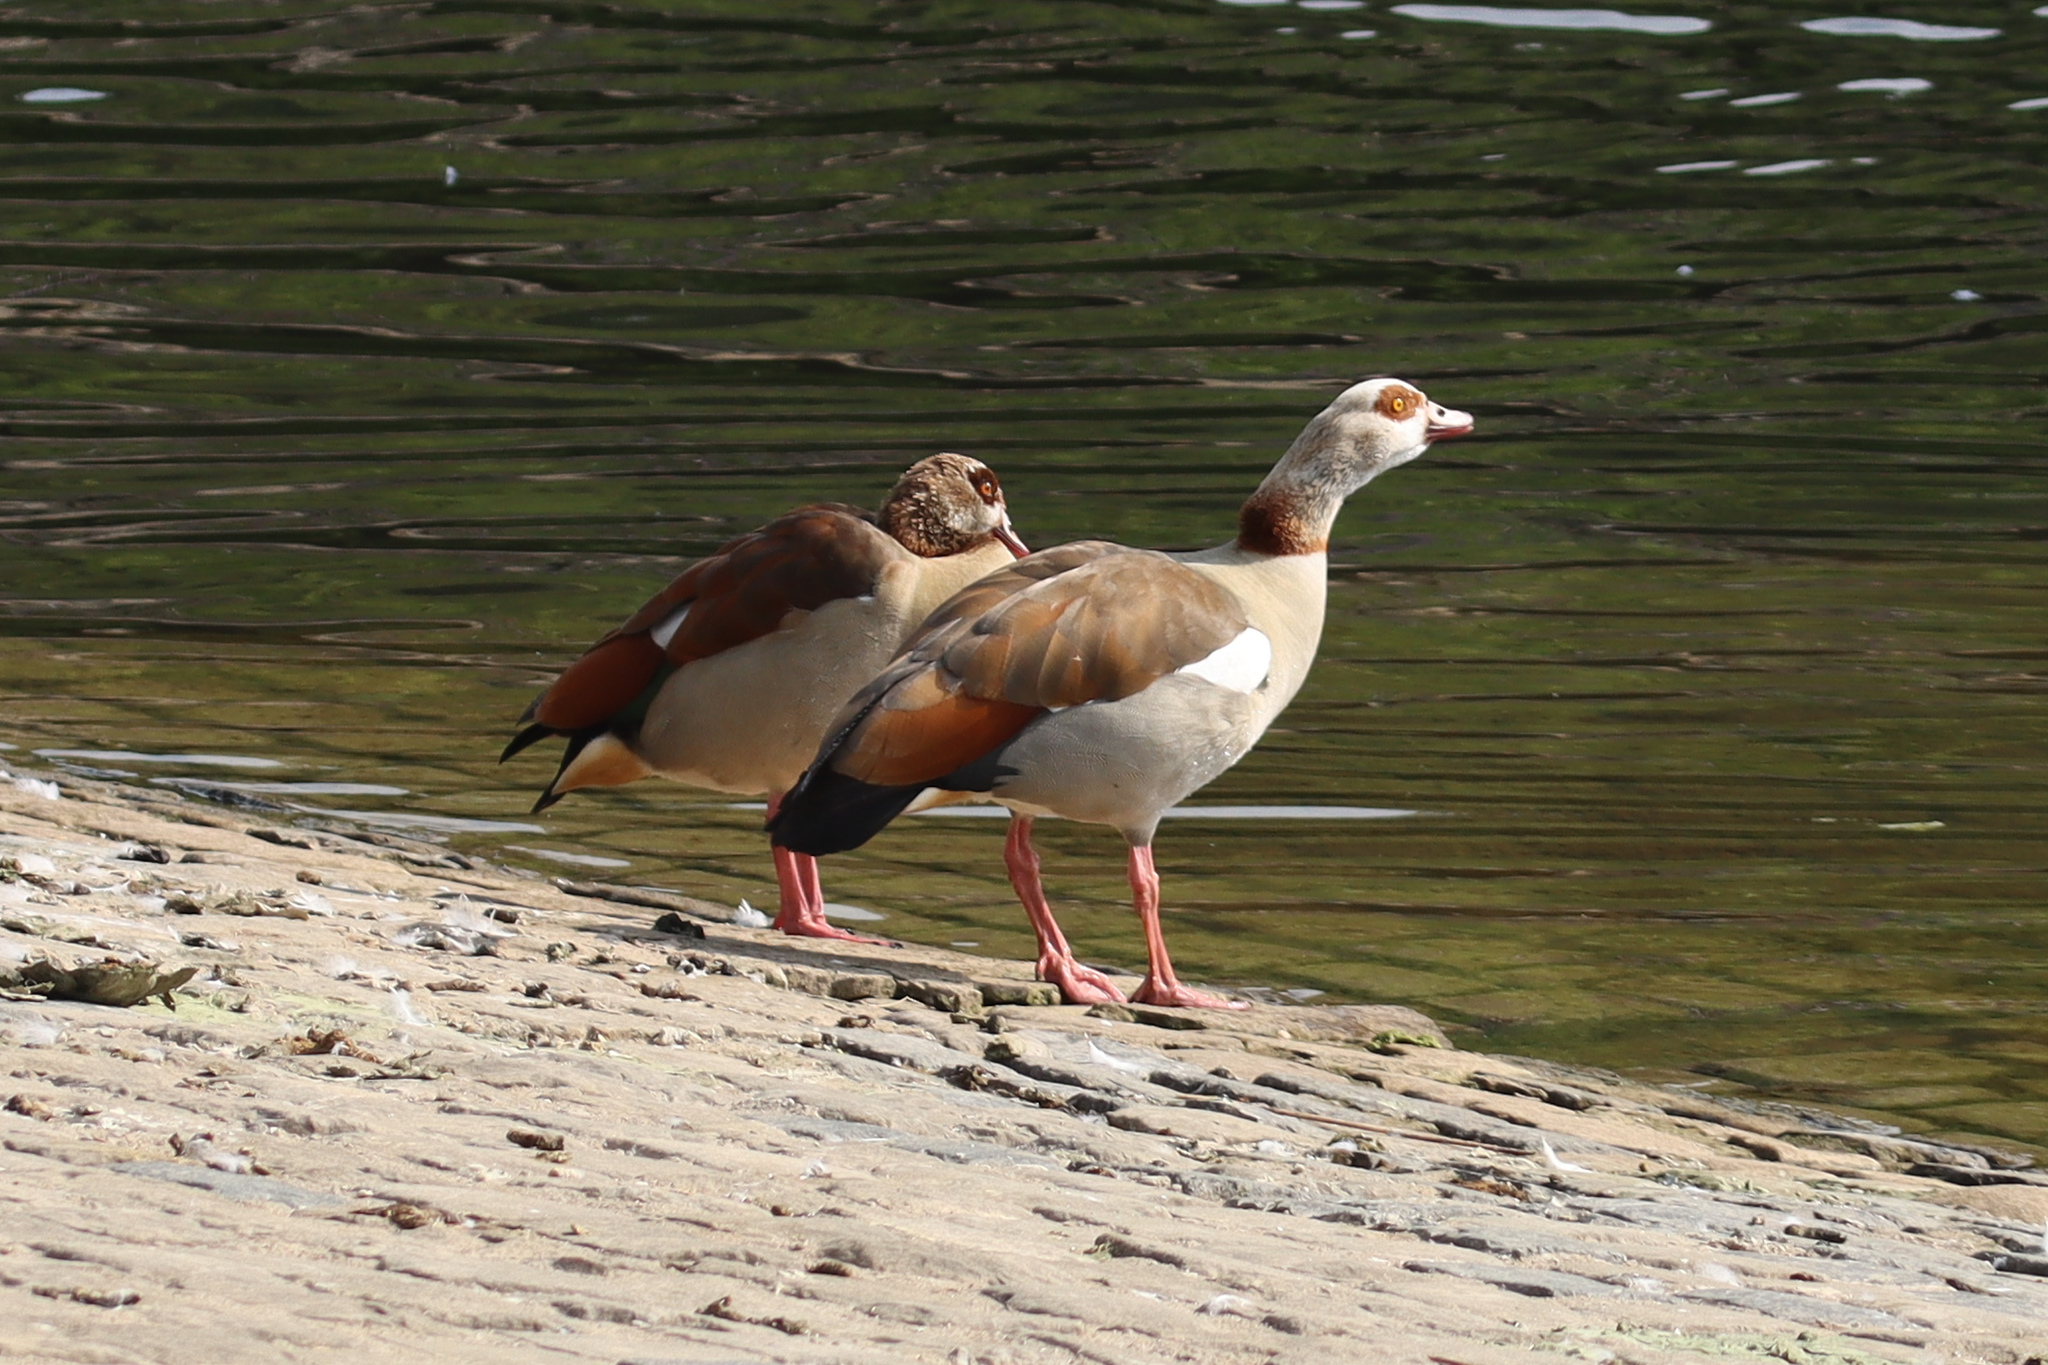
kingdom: Animalia
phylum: Chordata
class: Aves
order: Anseriformes
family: Anatidae
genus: Alopochen
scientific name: Alopochen aegyptiaca
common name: Egyptian goose
